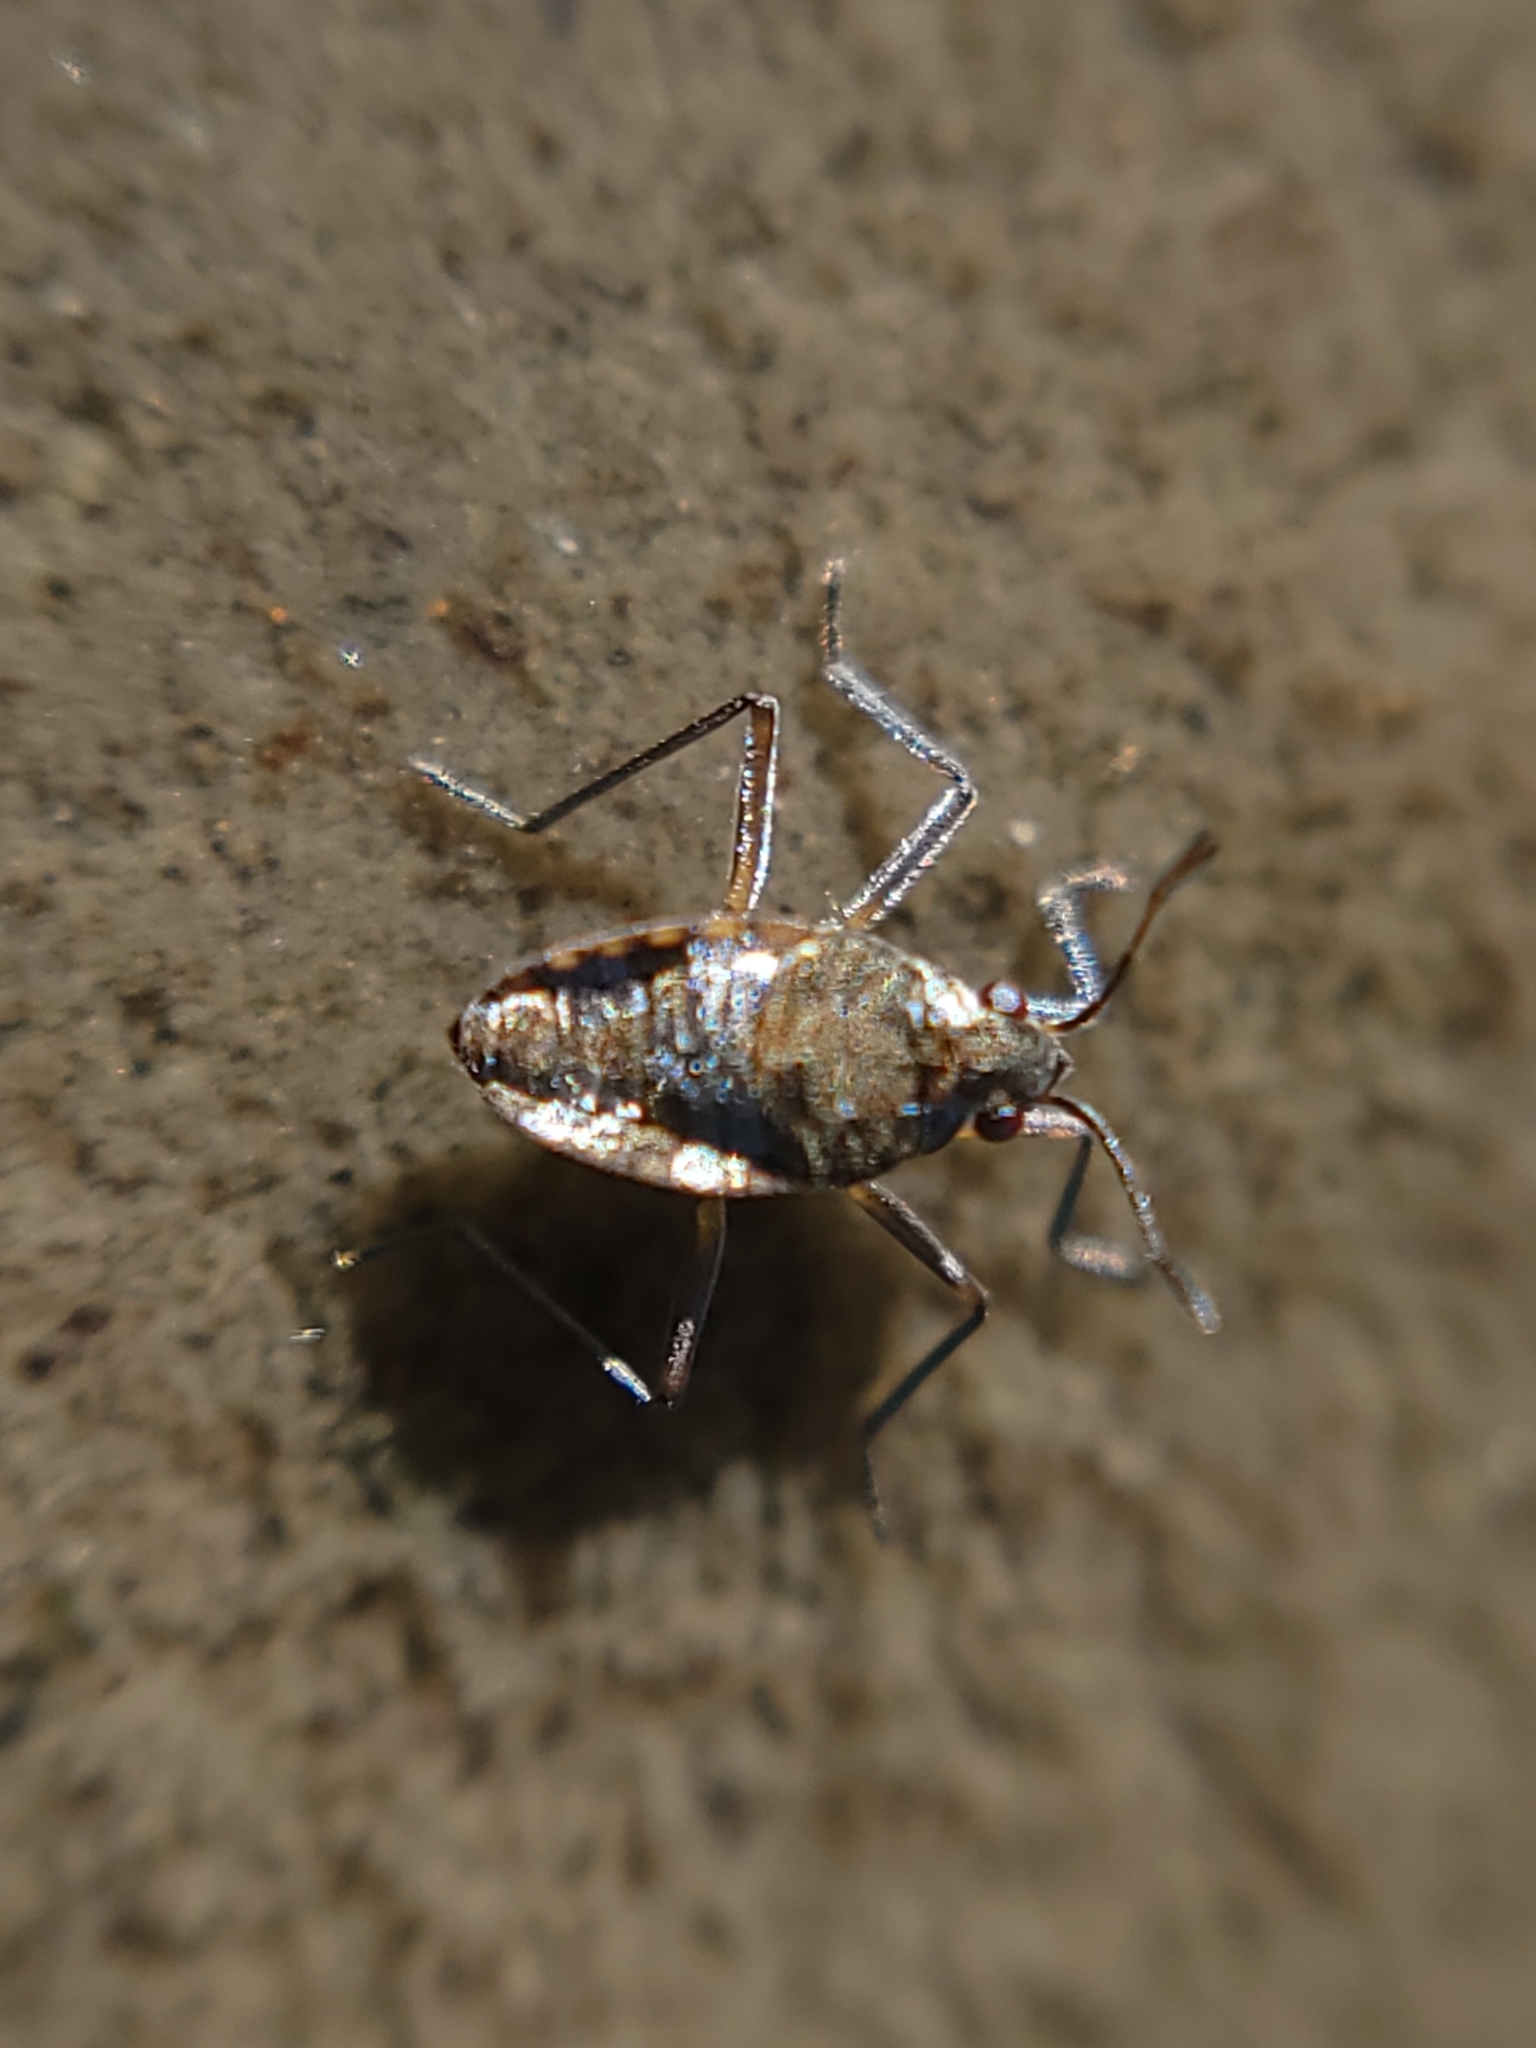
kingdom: Animalia
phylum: Arthropoda
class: Insecta
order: Hemiptera
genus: Kirkaldya
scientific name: Kirkaldya
